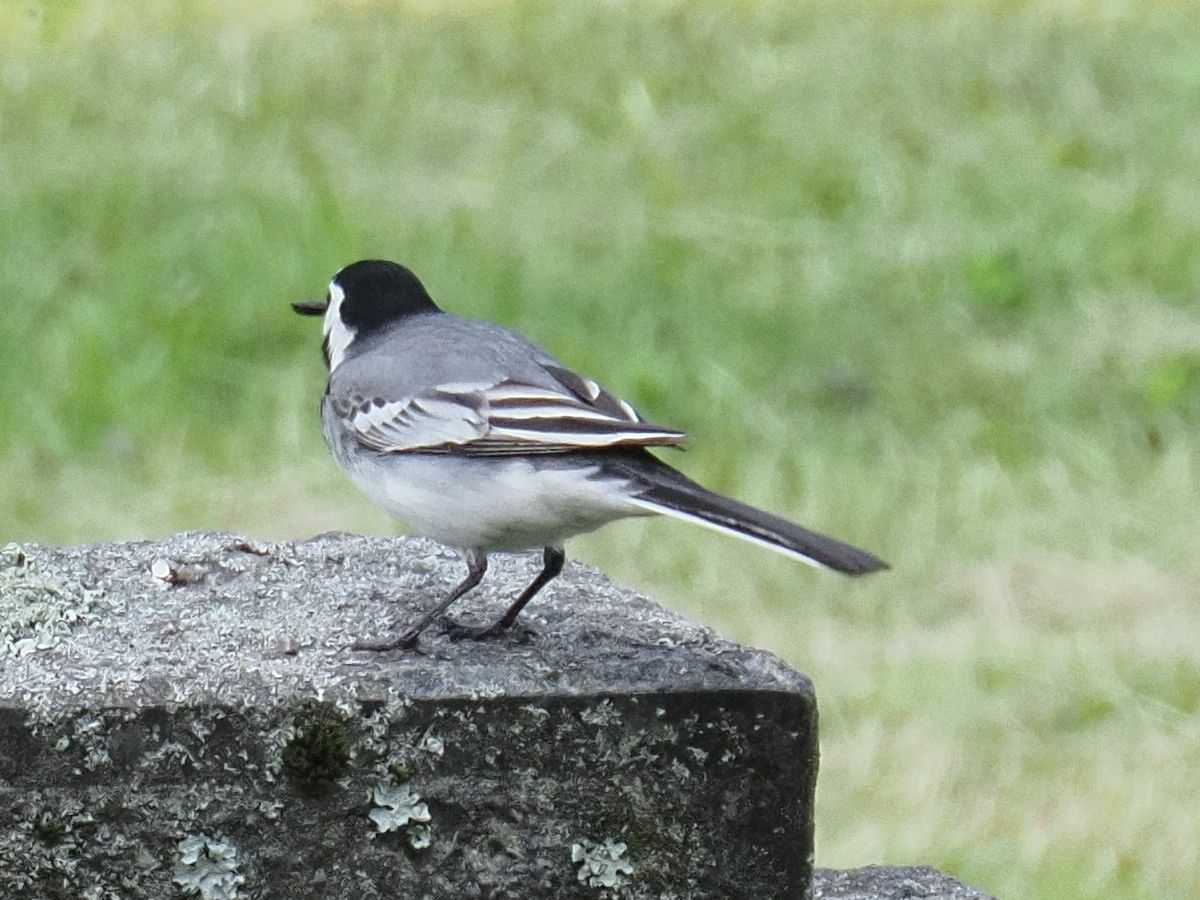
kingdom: Animalia
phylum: Chordata
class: Aves
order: Passeriformes
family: Motacillidae
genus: Motacilla
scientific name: Motacilla alba
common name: White wagtail
